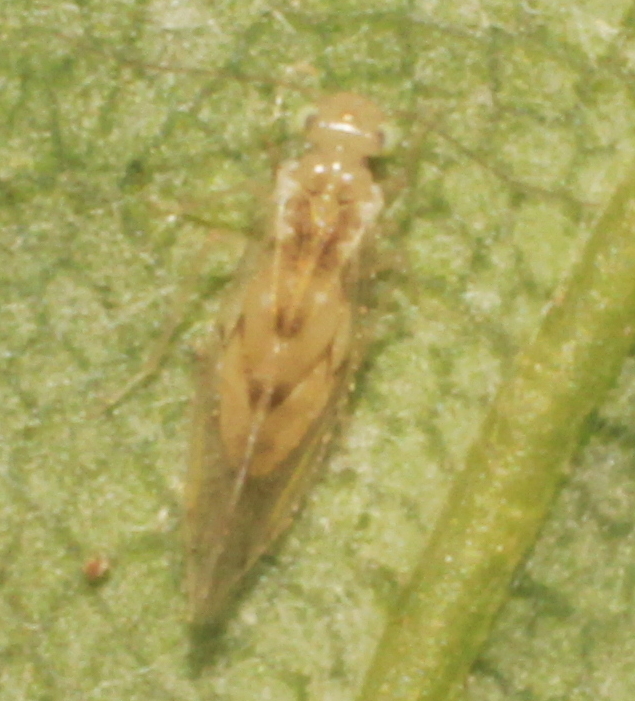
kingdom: Animalia
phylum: Arthropoda
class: Insecta
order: Psocodea
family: Trichopsocidae
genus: Trichopsocus
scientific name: Trichopsocus clarus
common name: Lash-faced psocid
